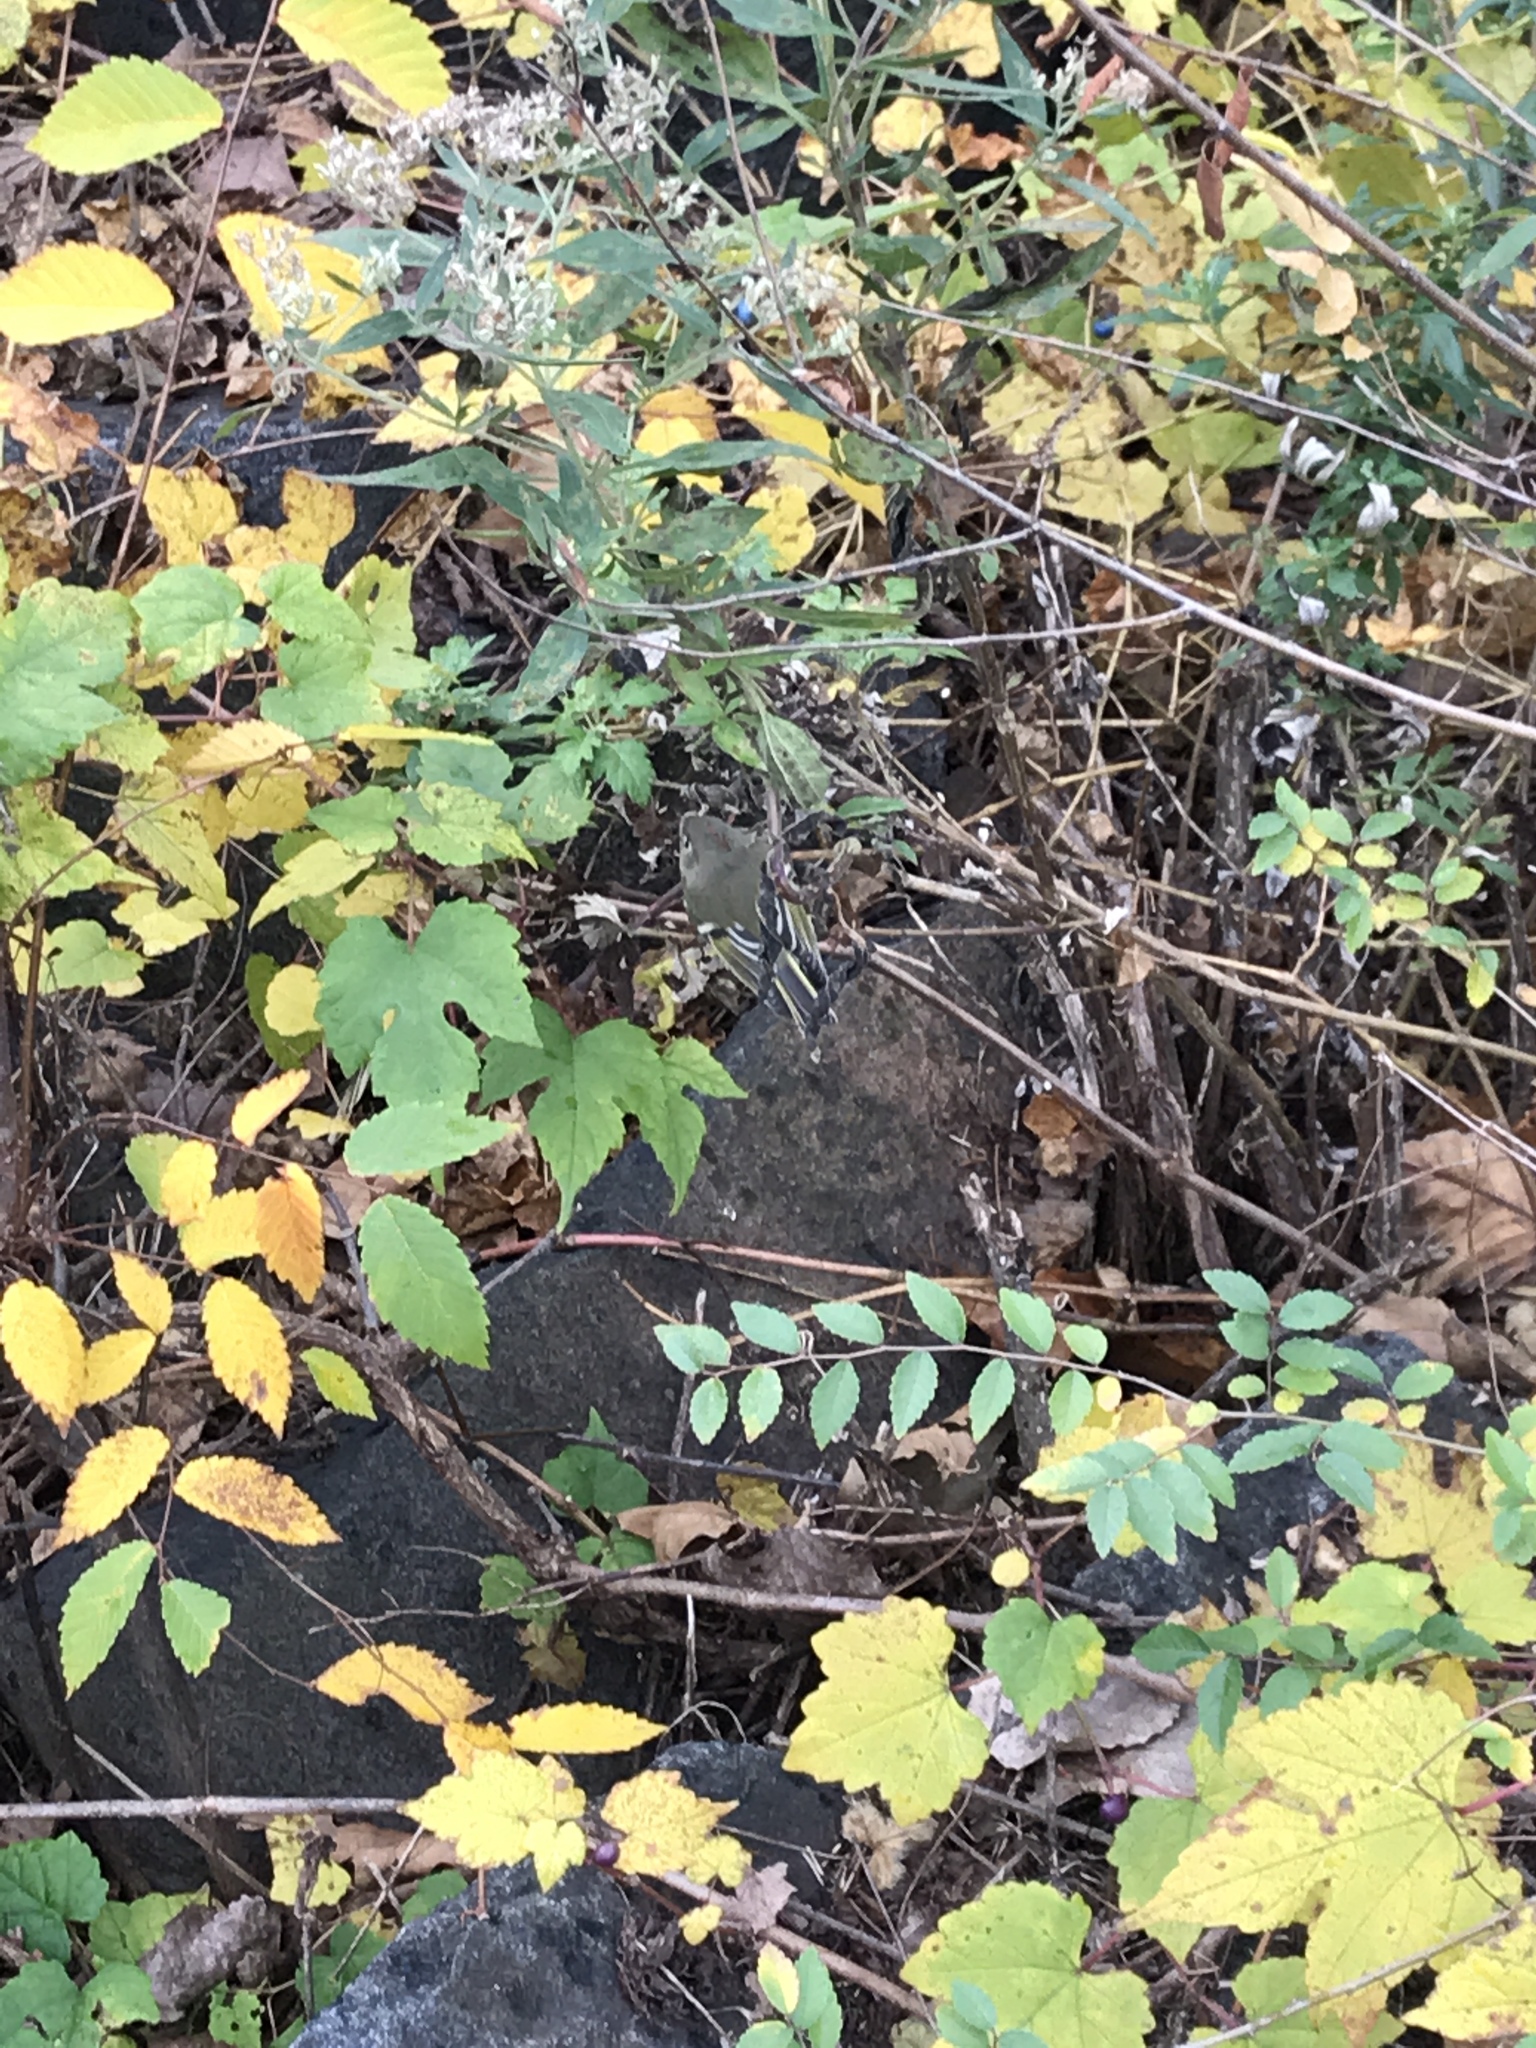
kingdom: Animalia
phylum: Chordata
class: Aves
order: Passeriformes
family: Regulidae
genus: Regulus
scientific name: Regulus calendula
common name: Ruby-crowned kinglet
